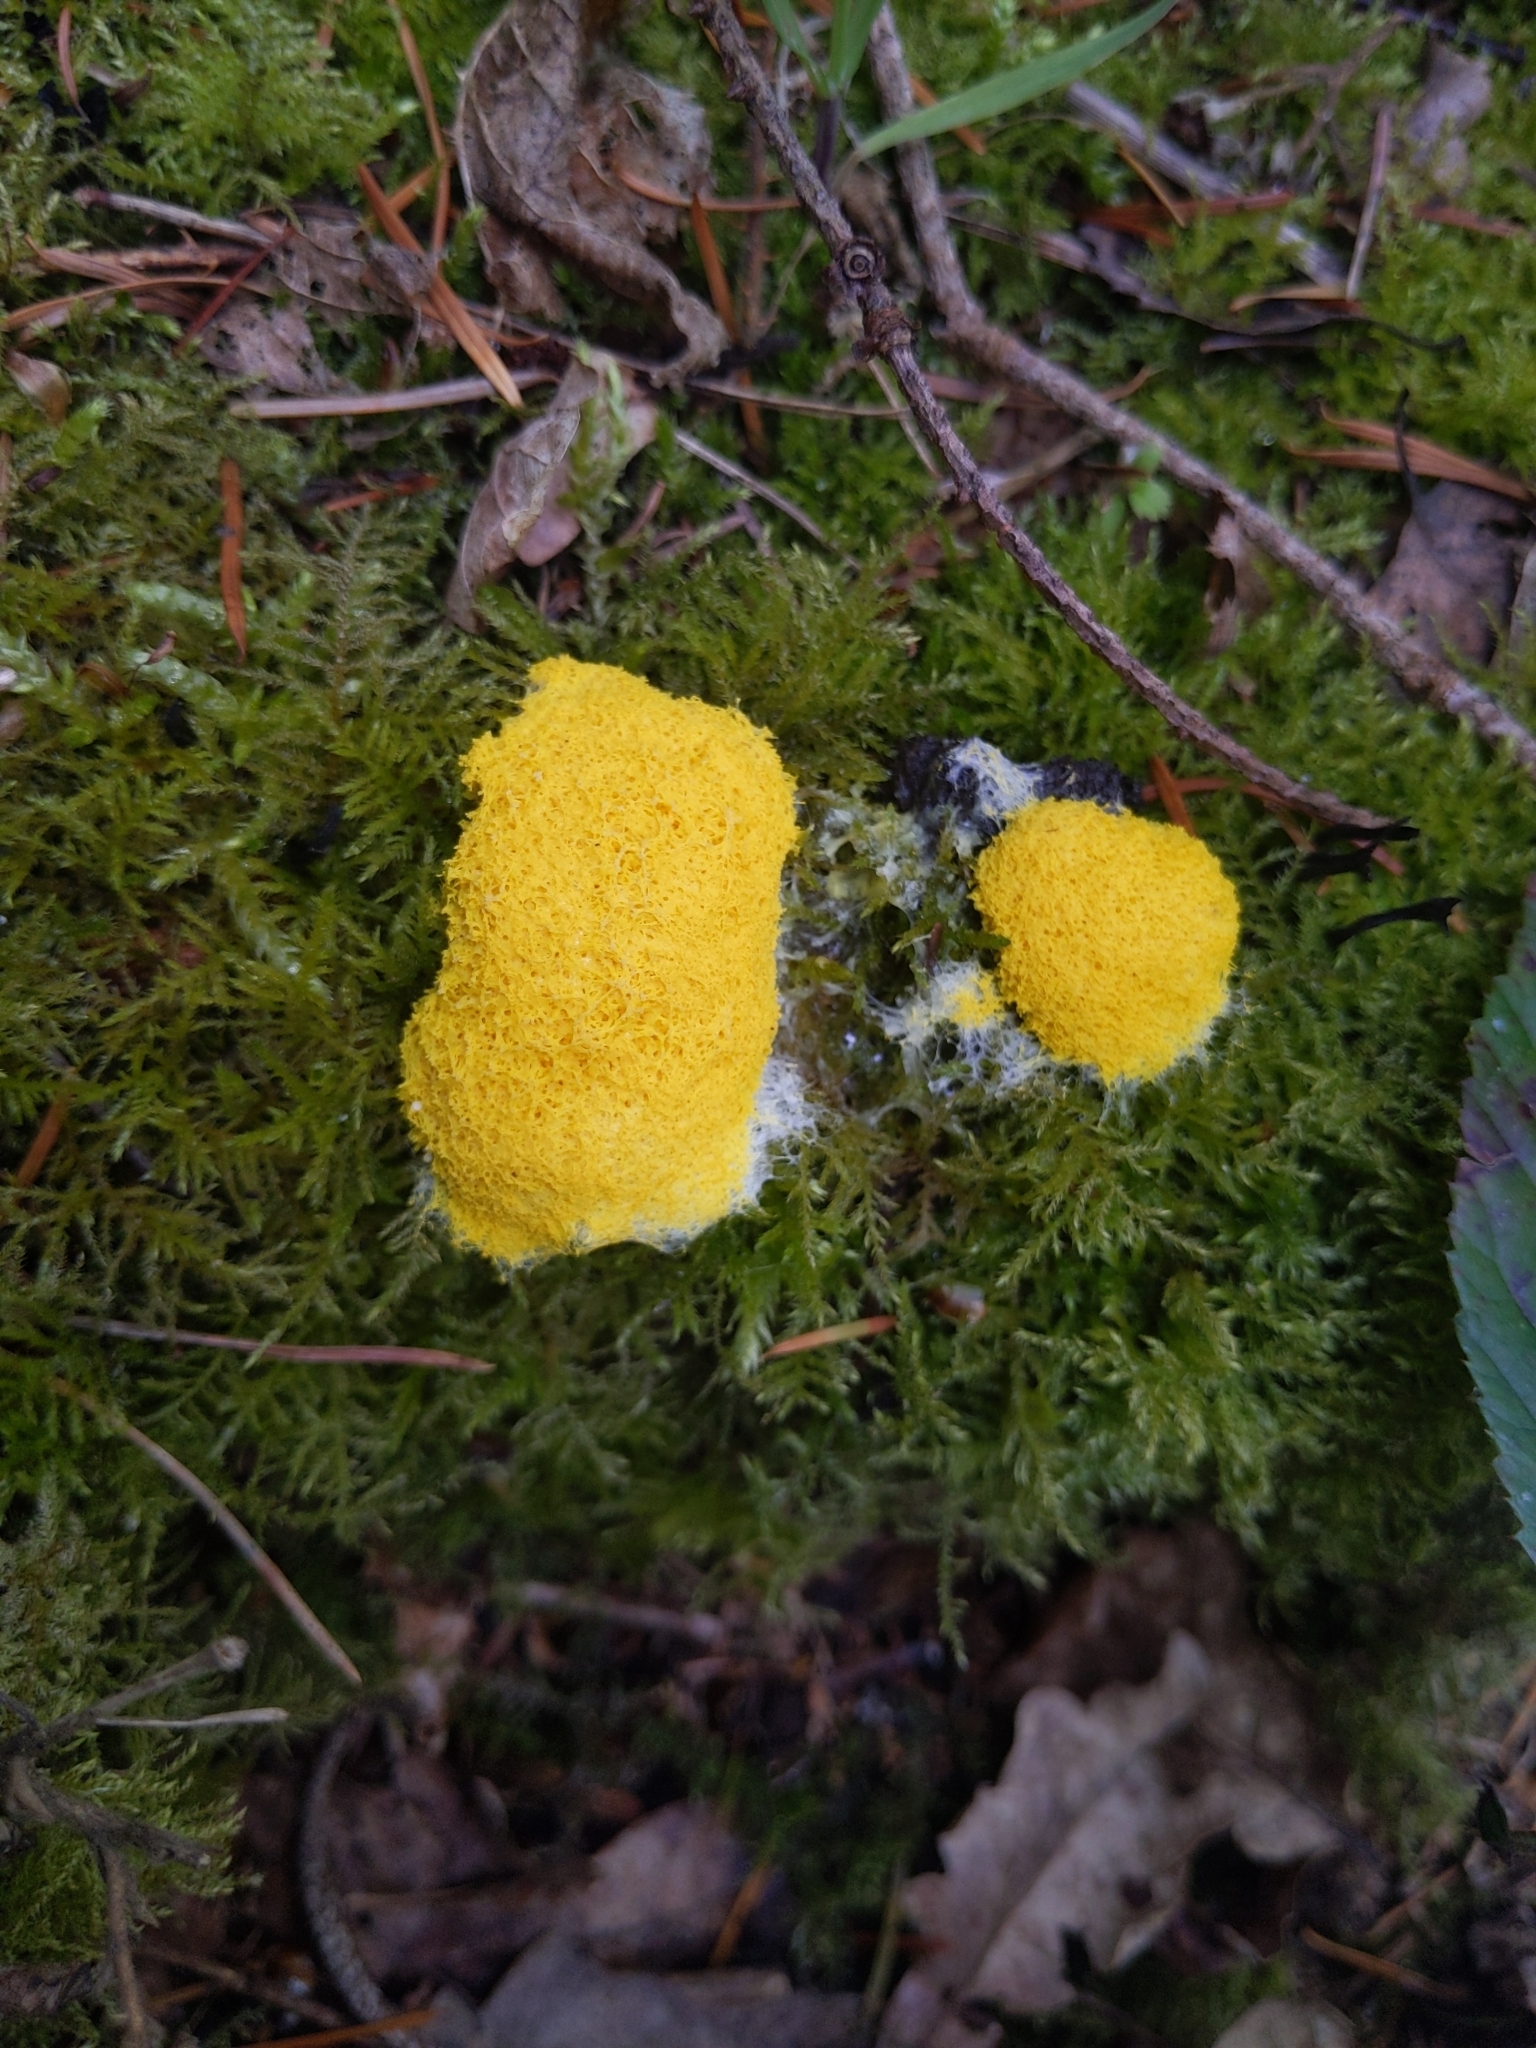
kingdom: Protozoa
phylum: Mycetozoa
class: Myxomycetes
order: Physarales
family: Physaraceae
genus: Fuligo
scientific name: Fuligo septica
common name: Dog vomit slime mold
